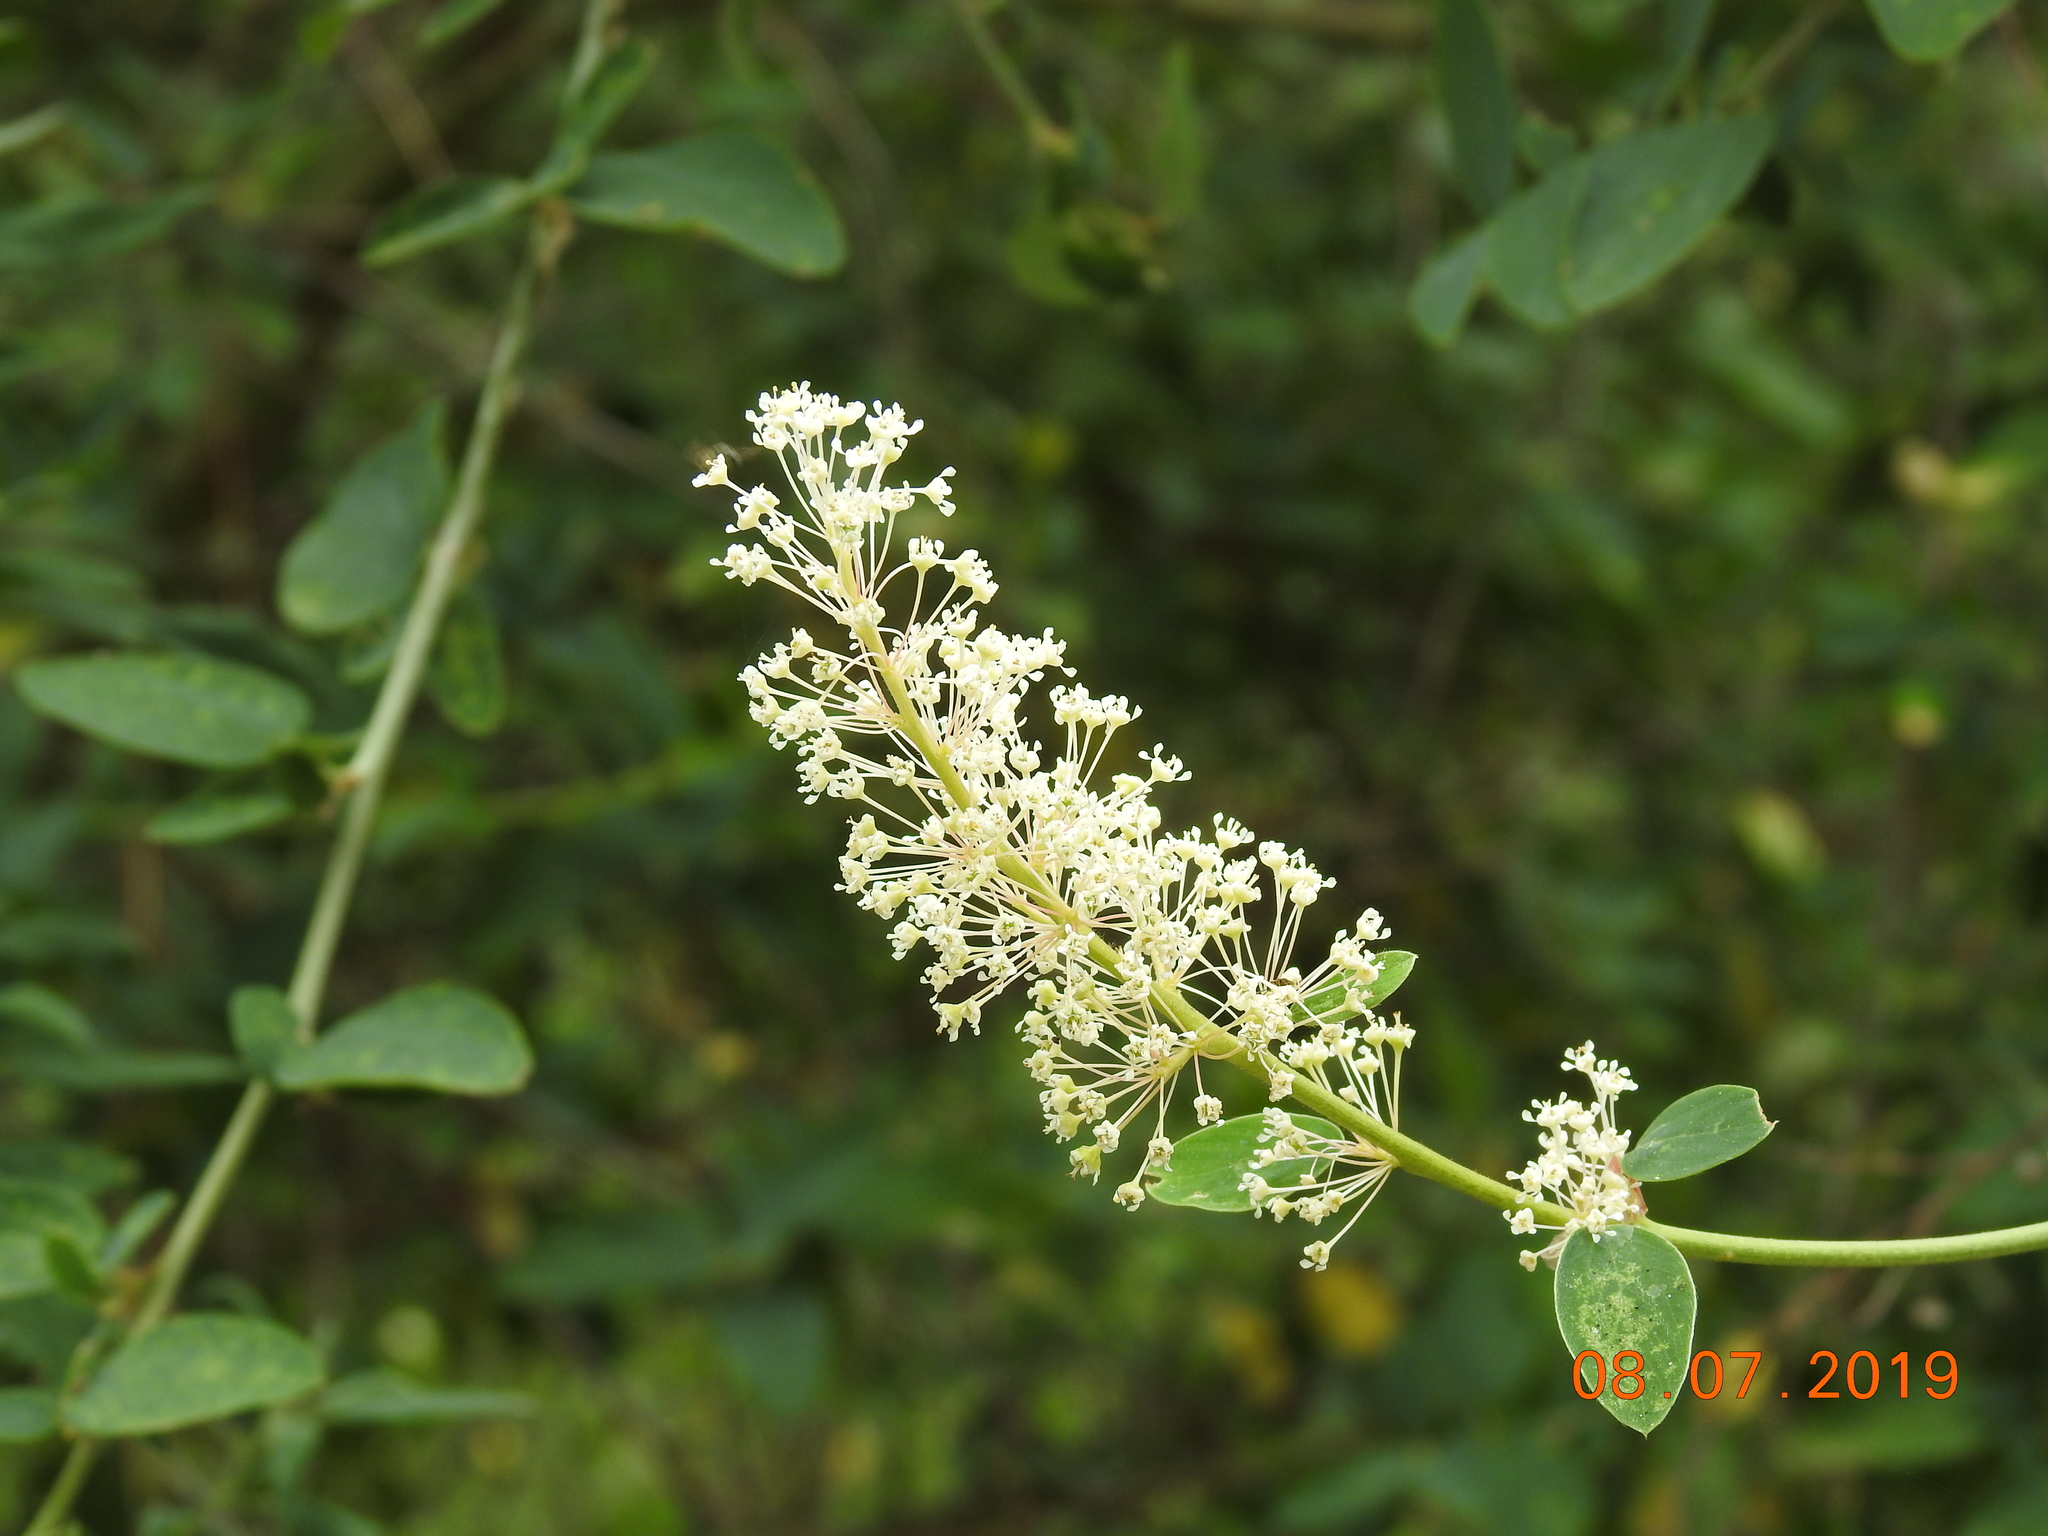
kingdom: Plantae
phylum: Tracheophyta
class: Magnoliopsida
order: Rosales
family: Rhamnaceae
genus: Ceanothus
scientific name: Ceanothus integerrimus
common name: Deerbrush ceanothus
